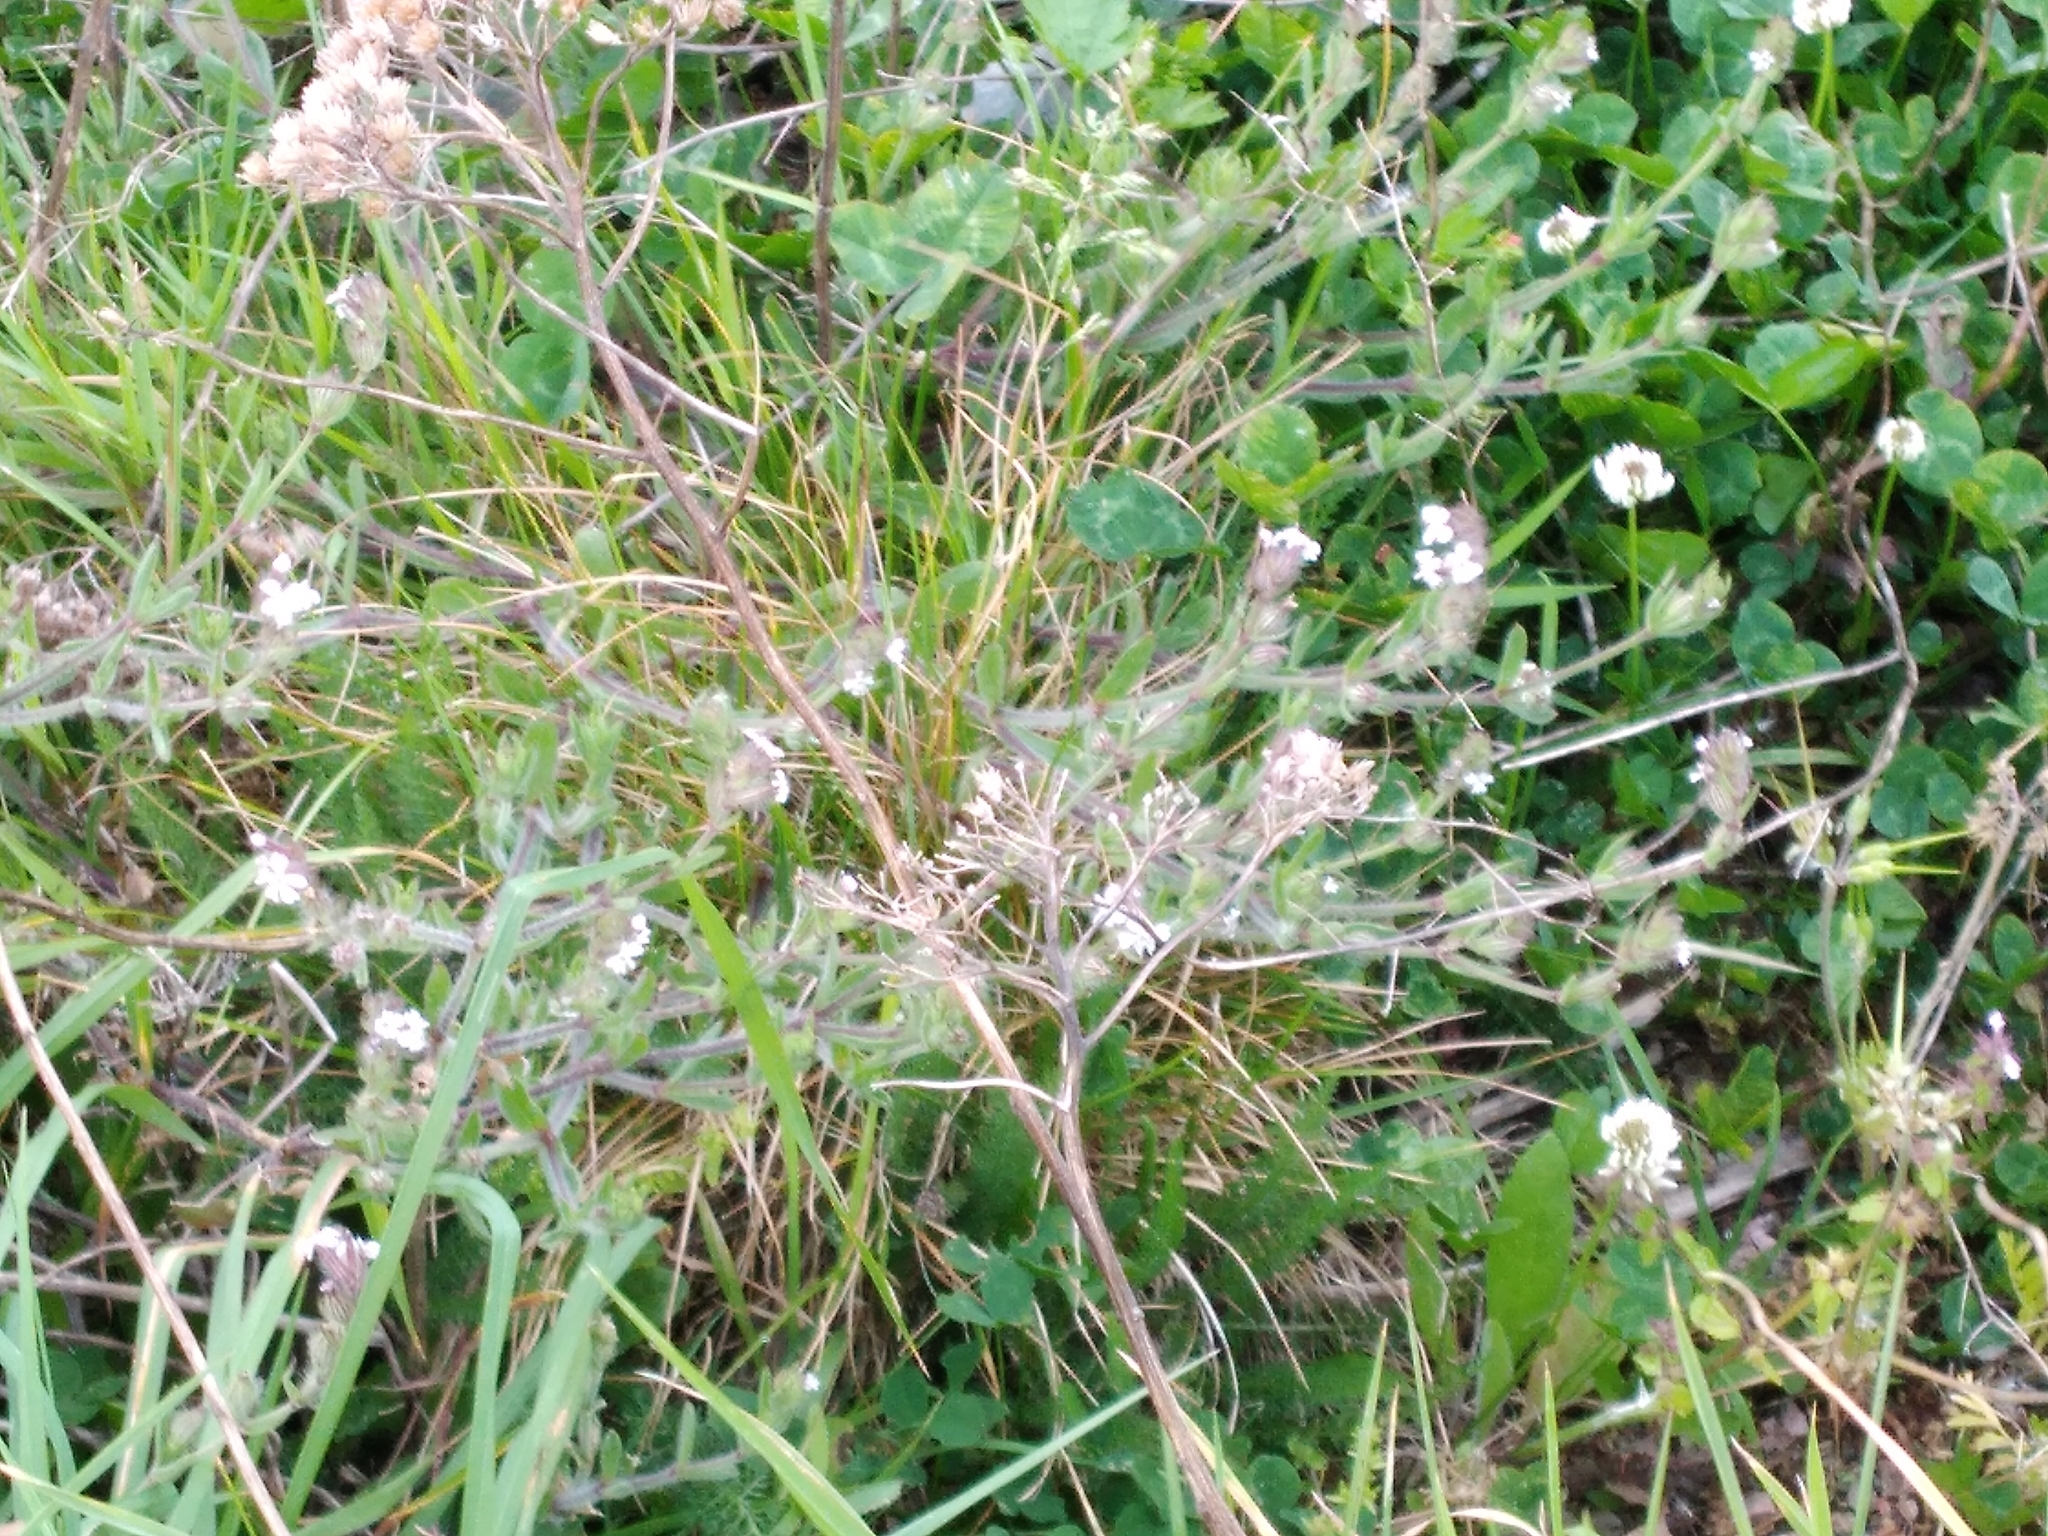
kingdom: Plantae
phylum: Tracheophyta
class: Magnoliopsida
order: Caryophyllales
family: Caryophyllaceae
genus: Silene
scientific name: Silene gallica
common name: Small-flowered catchfly
